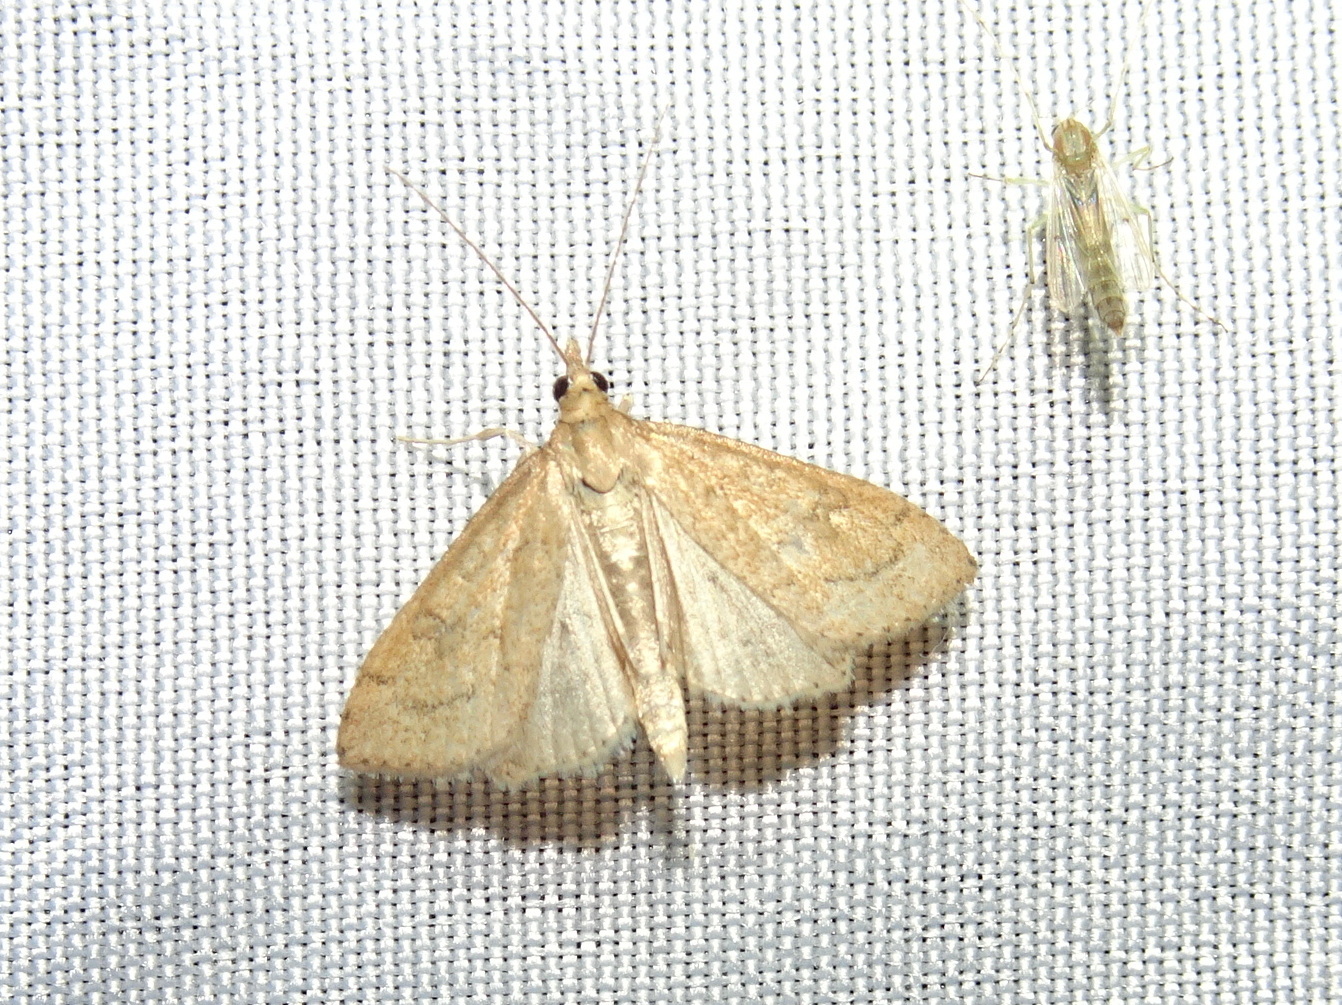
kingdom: Animalia
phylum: Arthropoda
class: Insecta
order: Lepidoptera
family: Crambidae
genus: Udea
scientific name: Udea rubigalis
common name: Celery leaftier moth
